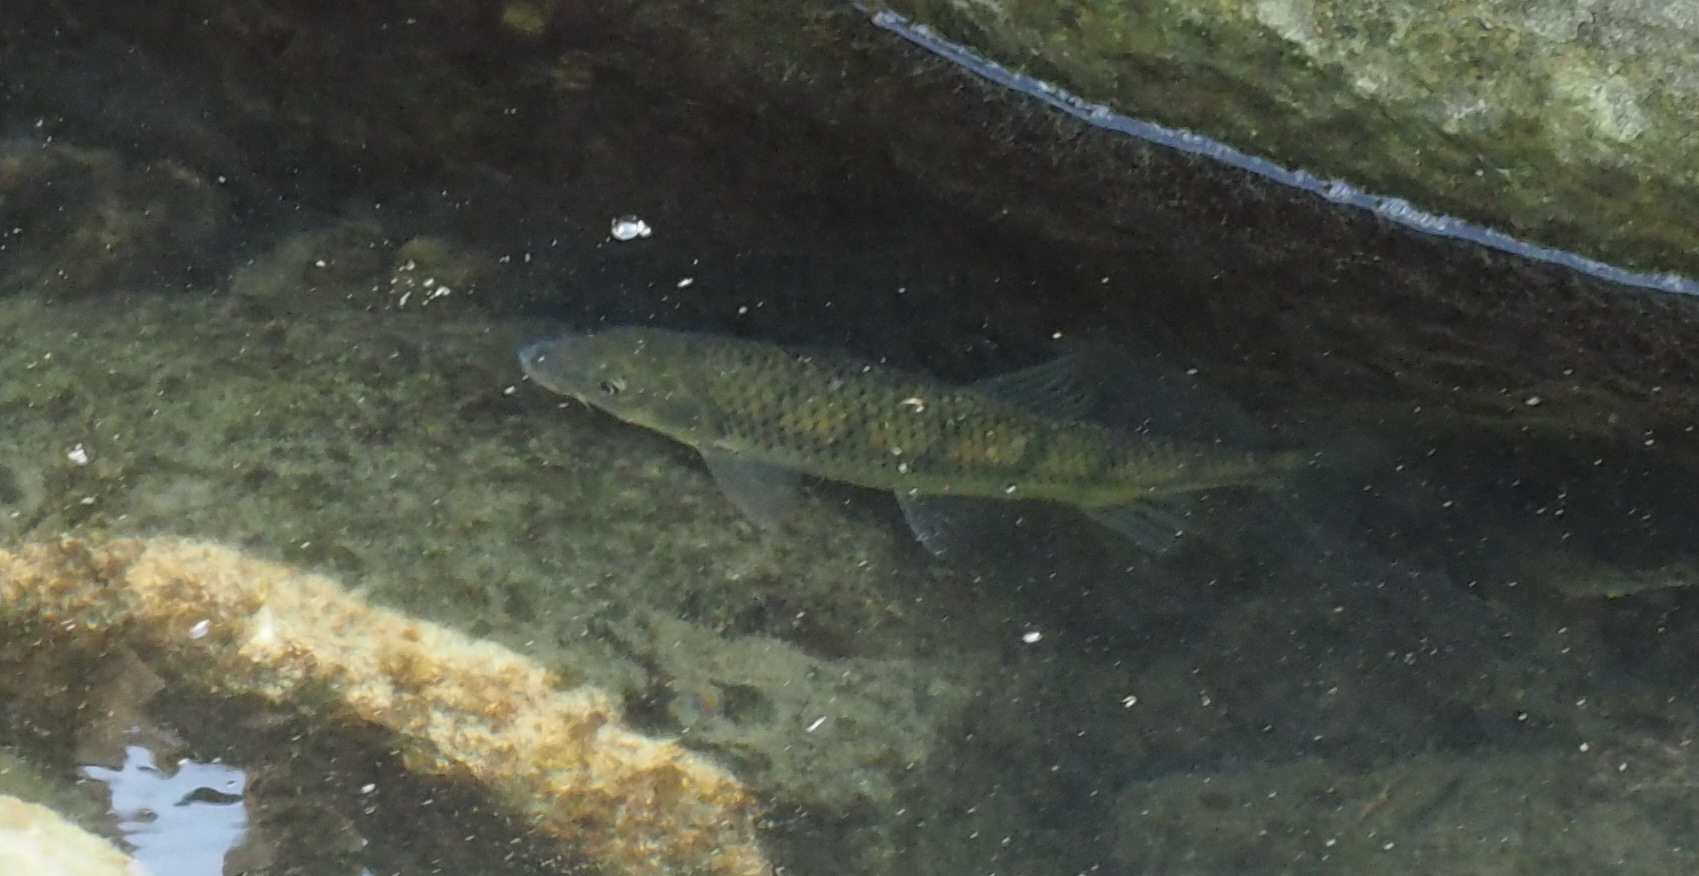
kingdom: Animalia
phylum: Chordata
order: Cypriniformes
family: Cyprinidae
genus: Acrossocheilus
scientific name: Acrossocheilus paradoxus
